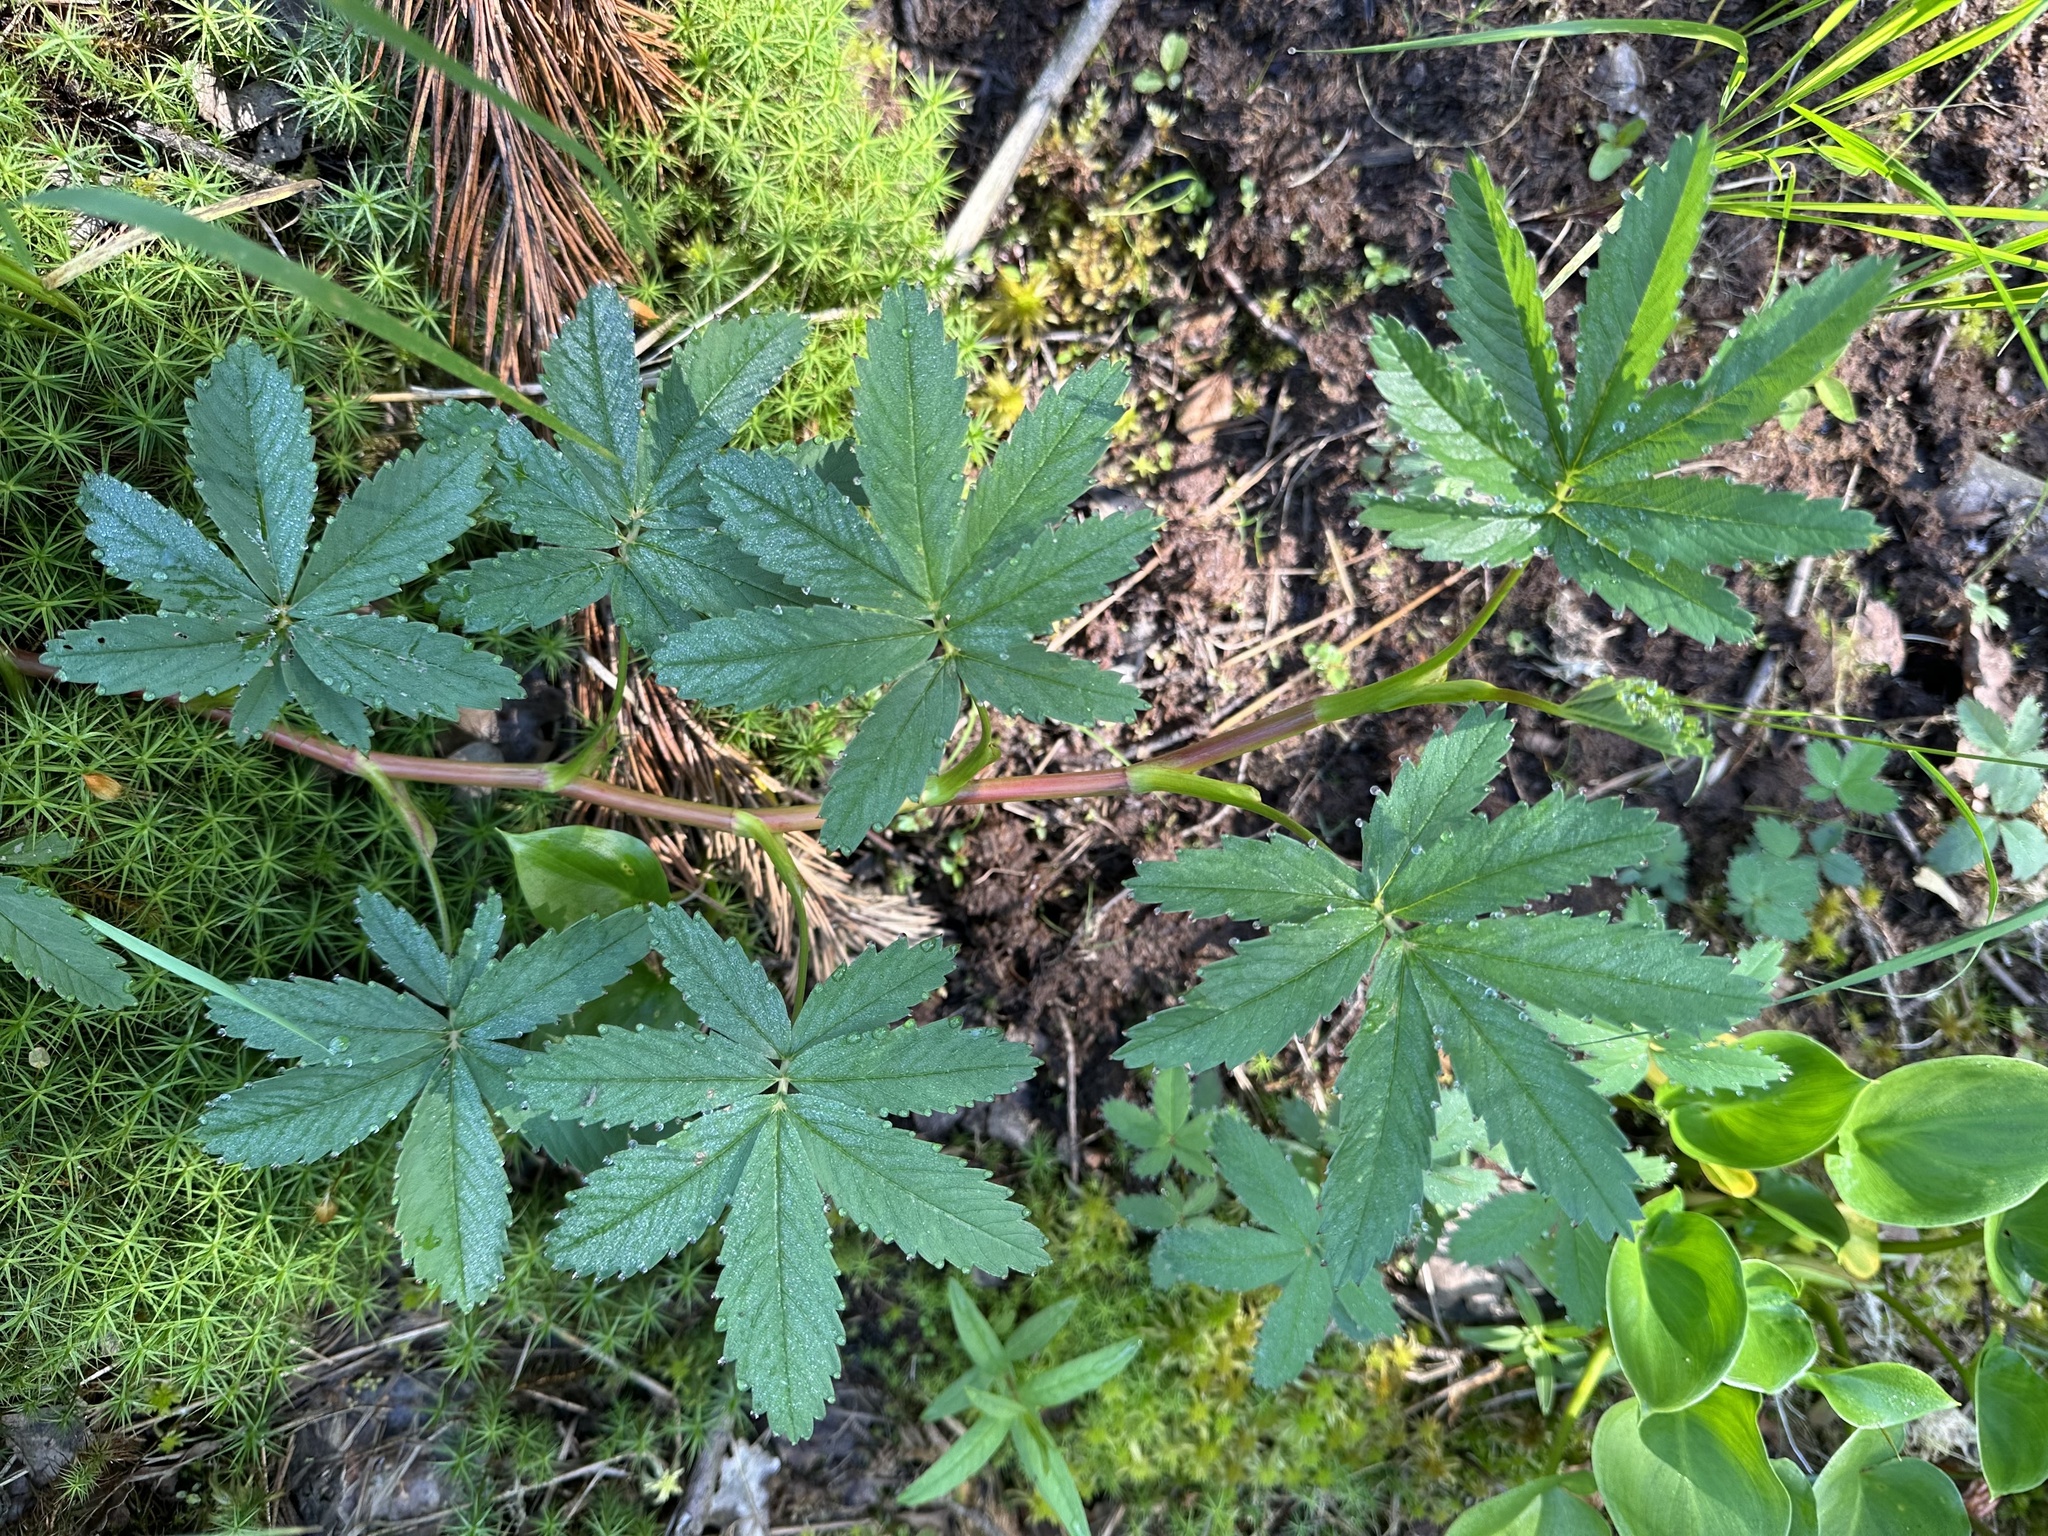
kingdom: Plantae
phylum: Tracheophyta
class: Magnoliopsida
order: Rosales
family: Rosaceae
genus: Comarum
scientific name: Comarum palustre
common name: Marsh cinquefoil
